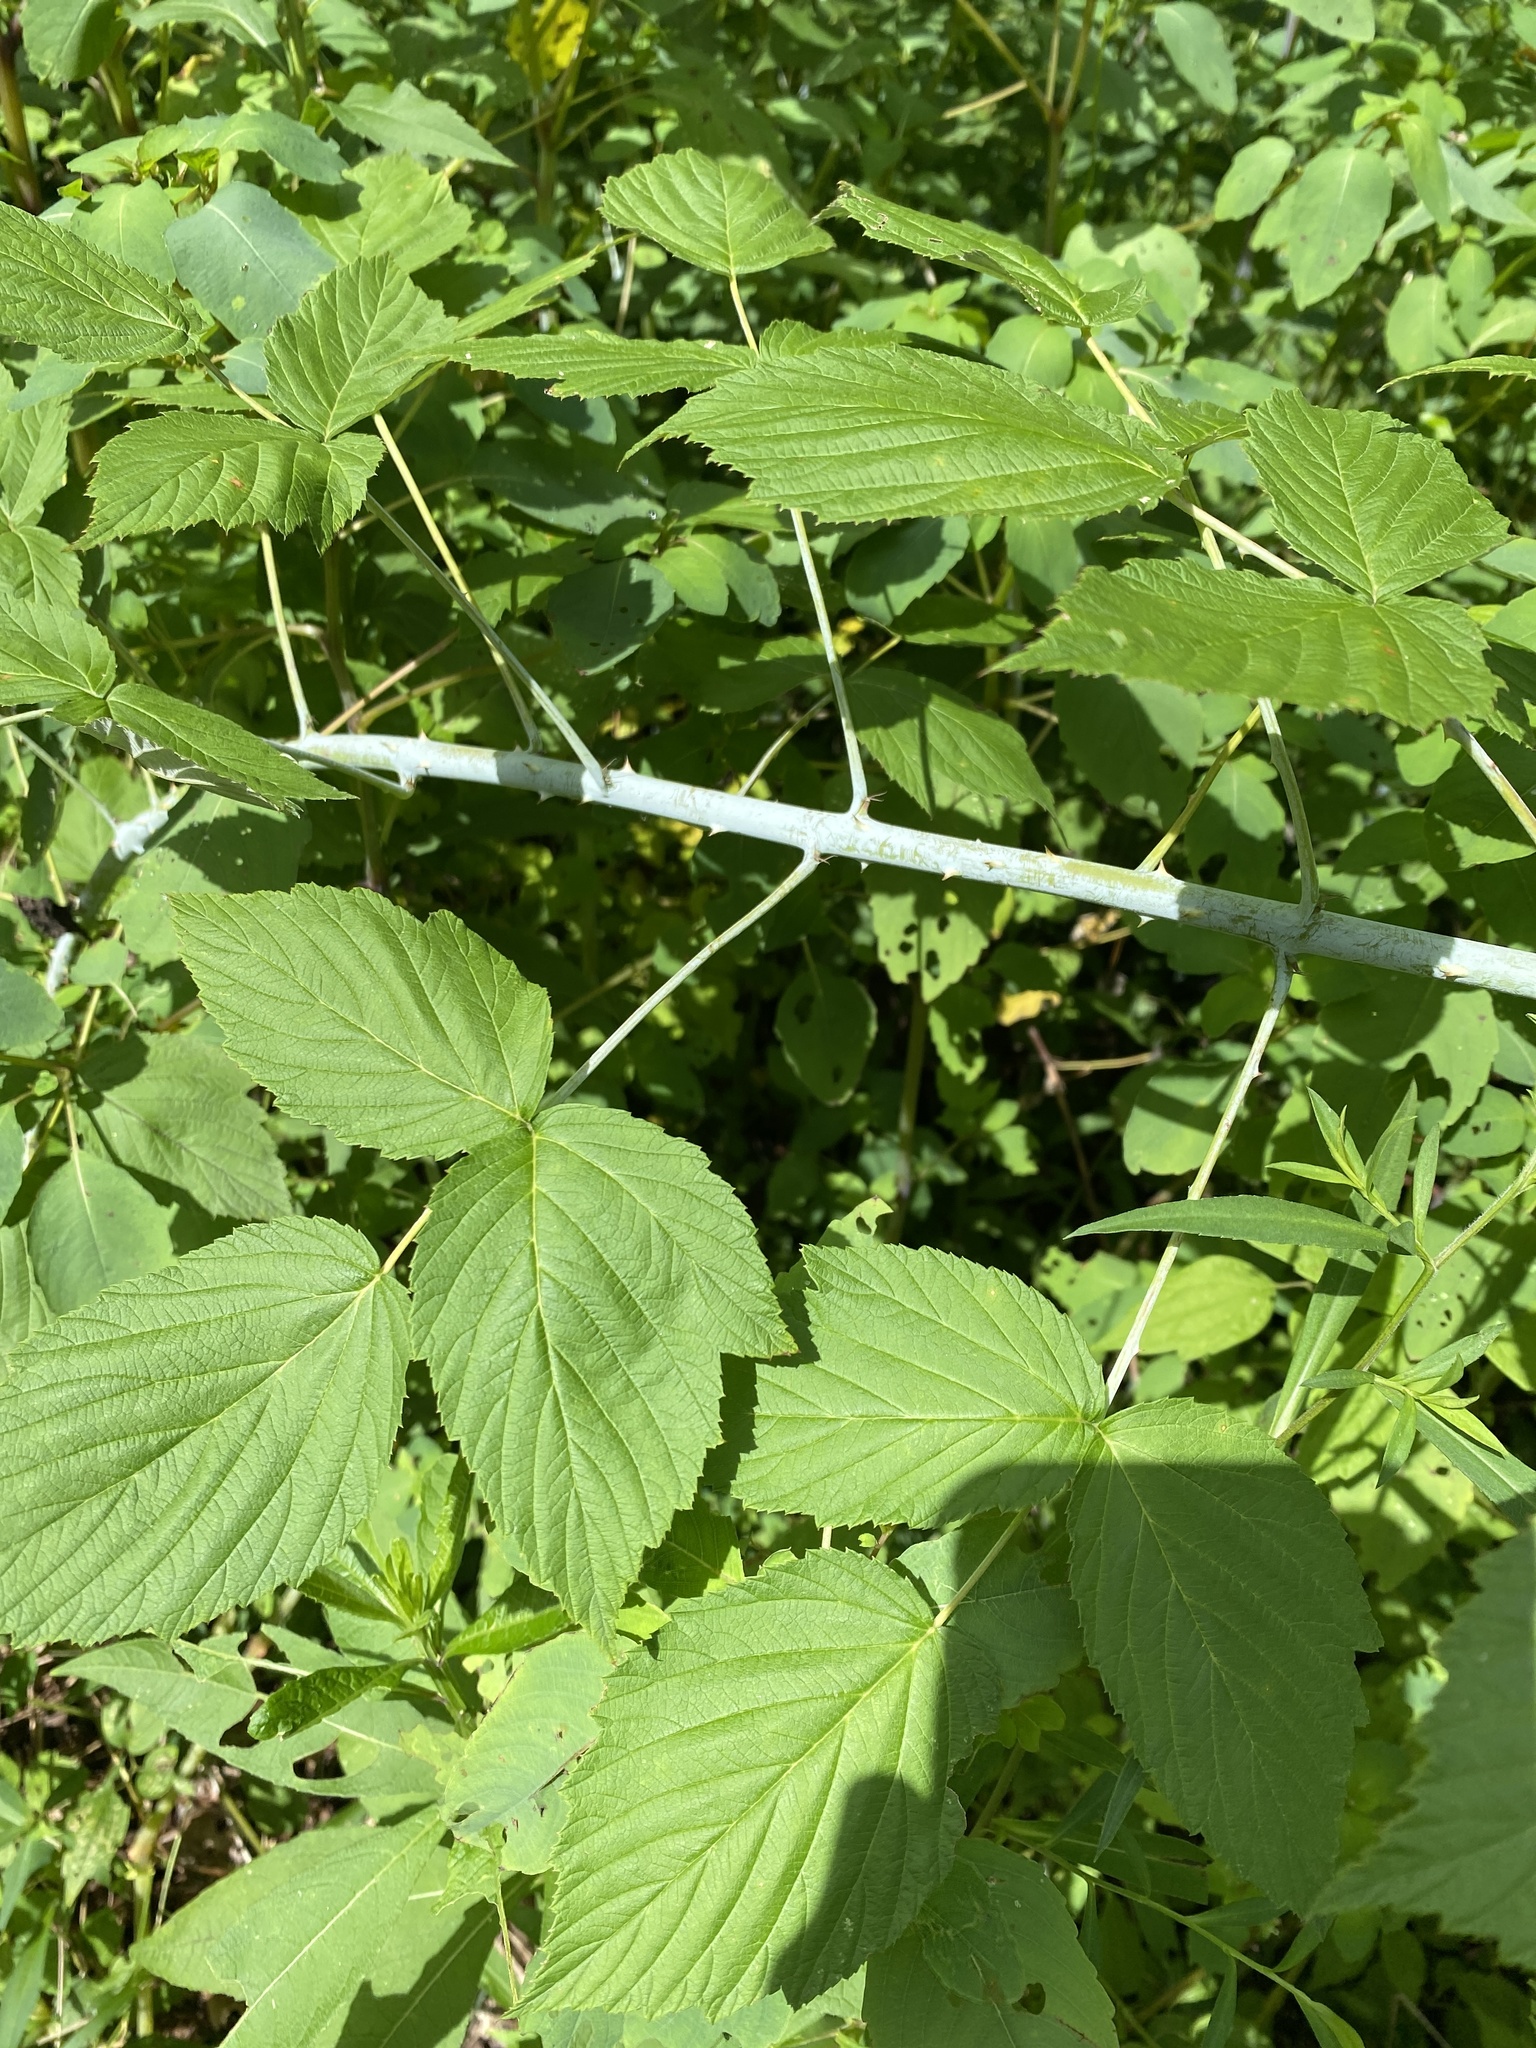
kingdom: Plantae
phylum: Tracheophyta
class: Magnoliopsida
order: Rosales
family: Rosaceae
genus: Rubus
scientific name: Rubus occidentalis
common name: Black raspberry
